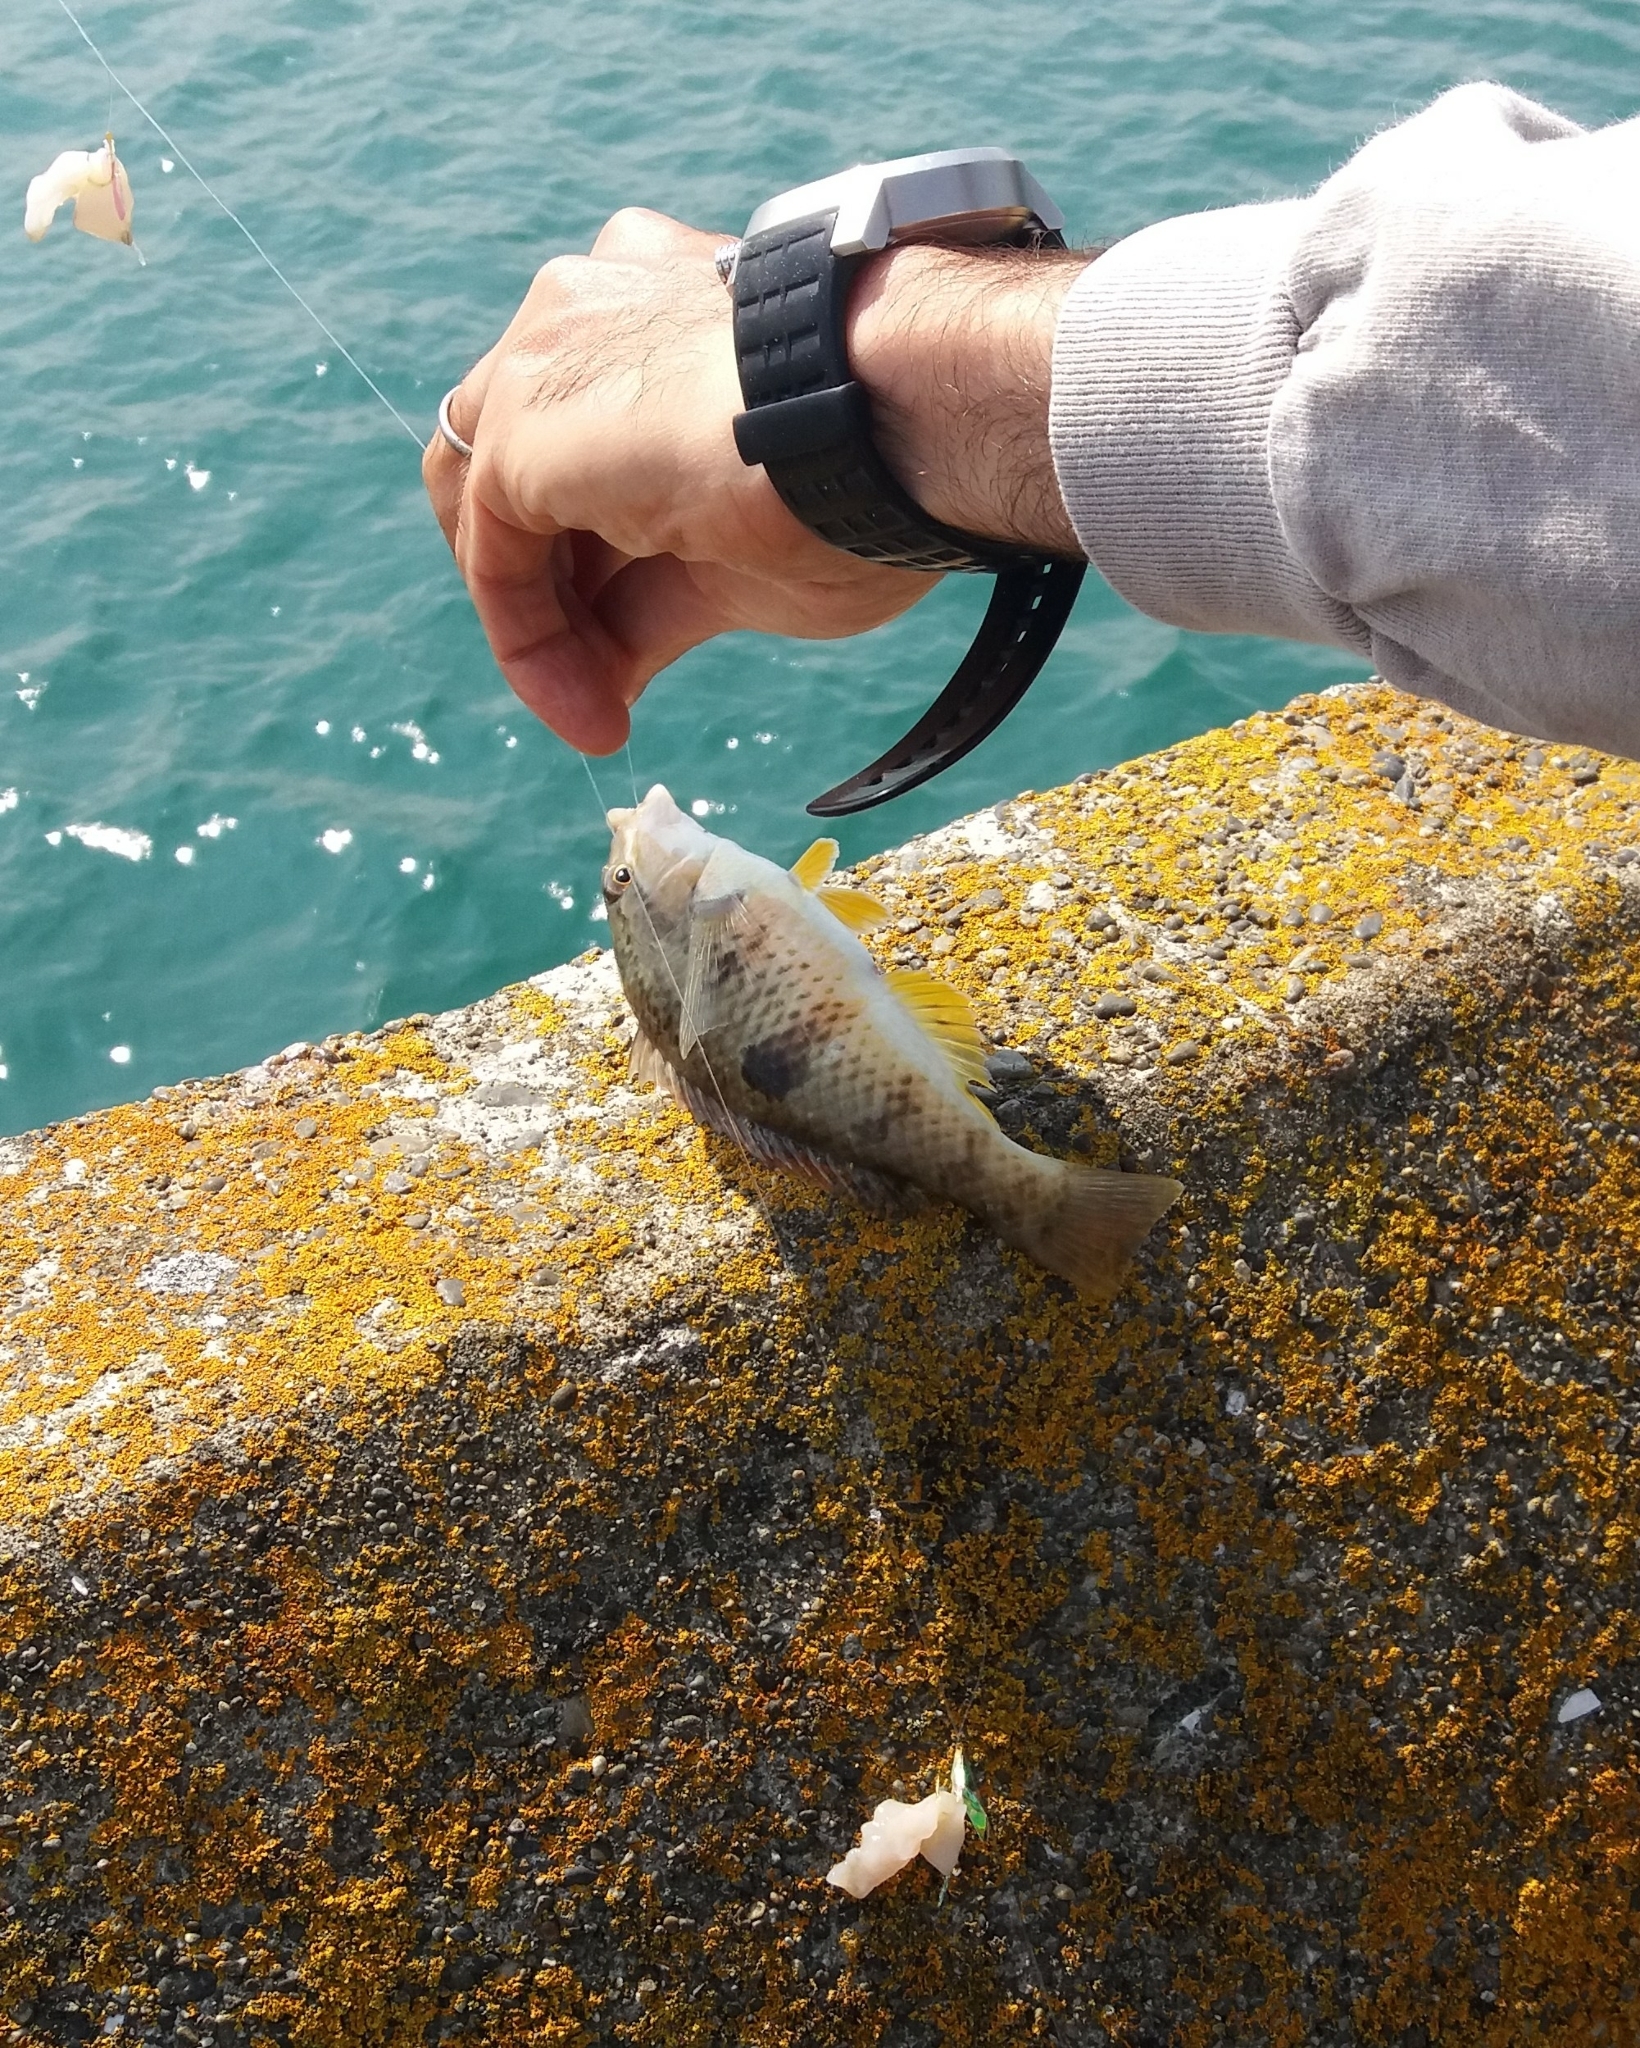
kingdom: Animalia
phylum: Chordata
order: Perciformes
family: Labridae
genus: Notolabrus
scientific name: Notolabrus celidotus
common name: Spotty
